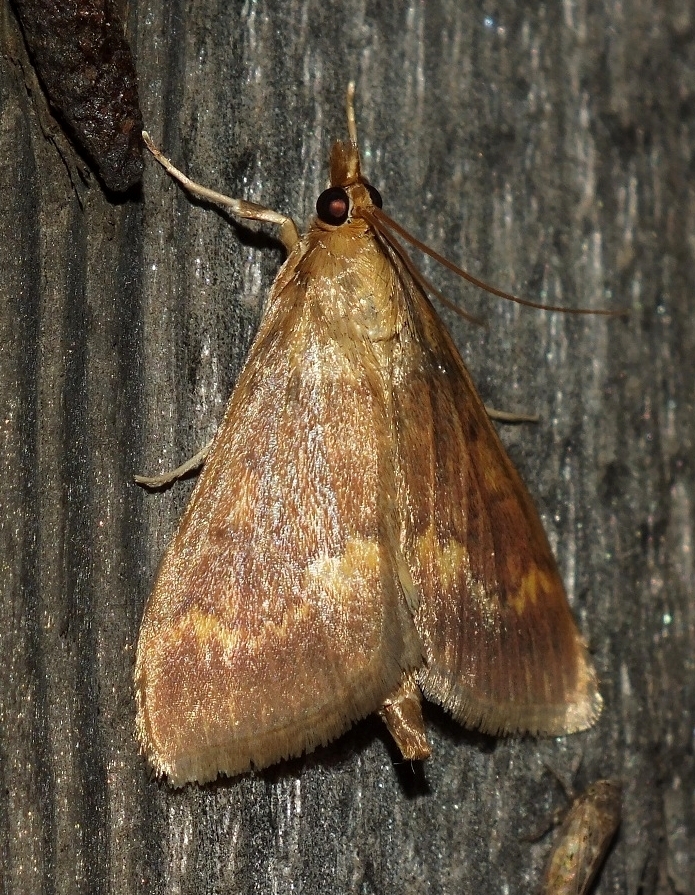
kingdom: Animalia
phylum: Arthropoda
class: Insecta
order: Lepidoptera
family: Crambidae
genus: Ostrinia
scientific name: Ostrinia nubilalis
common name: European corn borer
